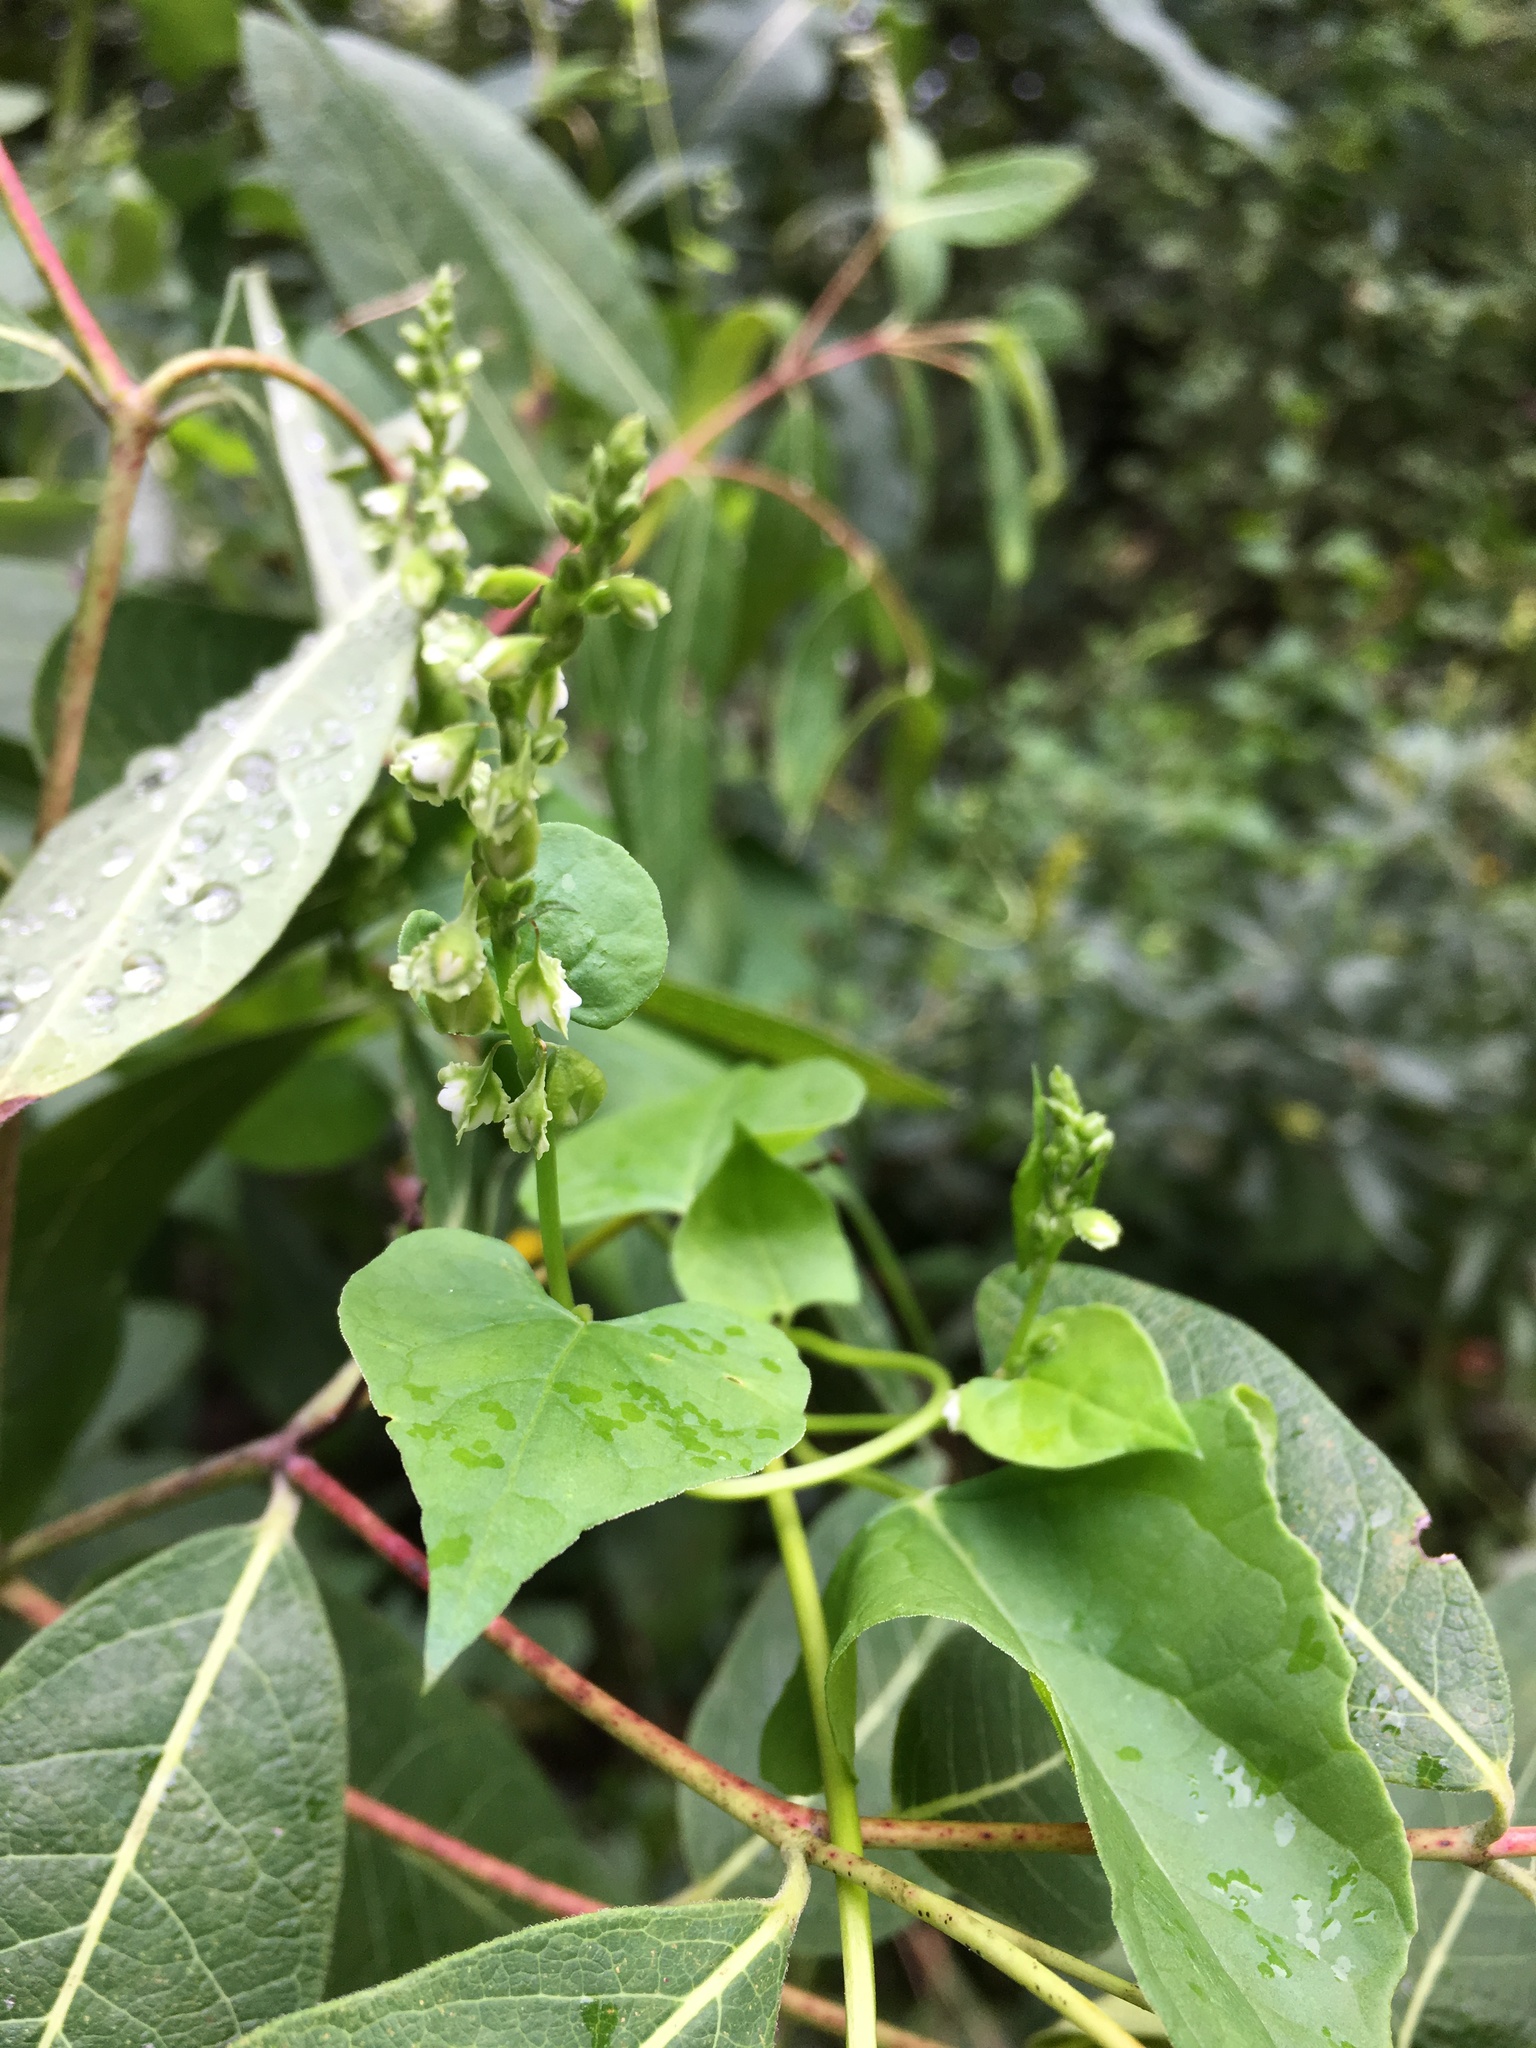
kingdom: Plantae
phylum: Tracheophyta
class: Magnoliopsida
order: Caryophyllales
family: Polygonaceae
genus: Fallopia
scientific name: Fallopia scandens
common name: Climbing false buckwheat
